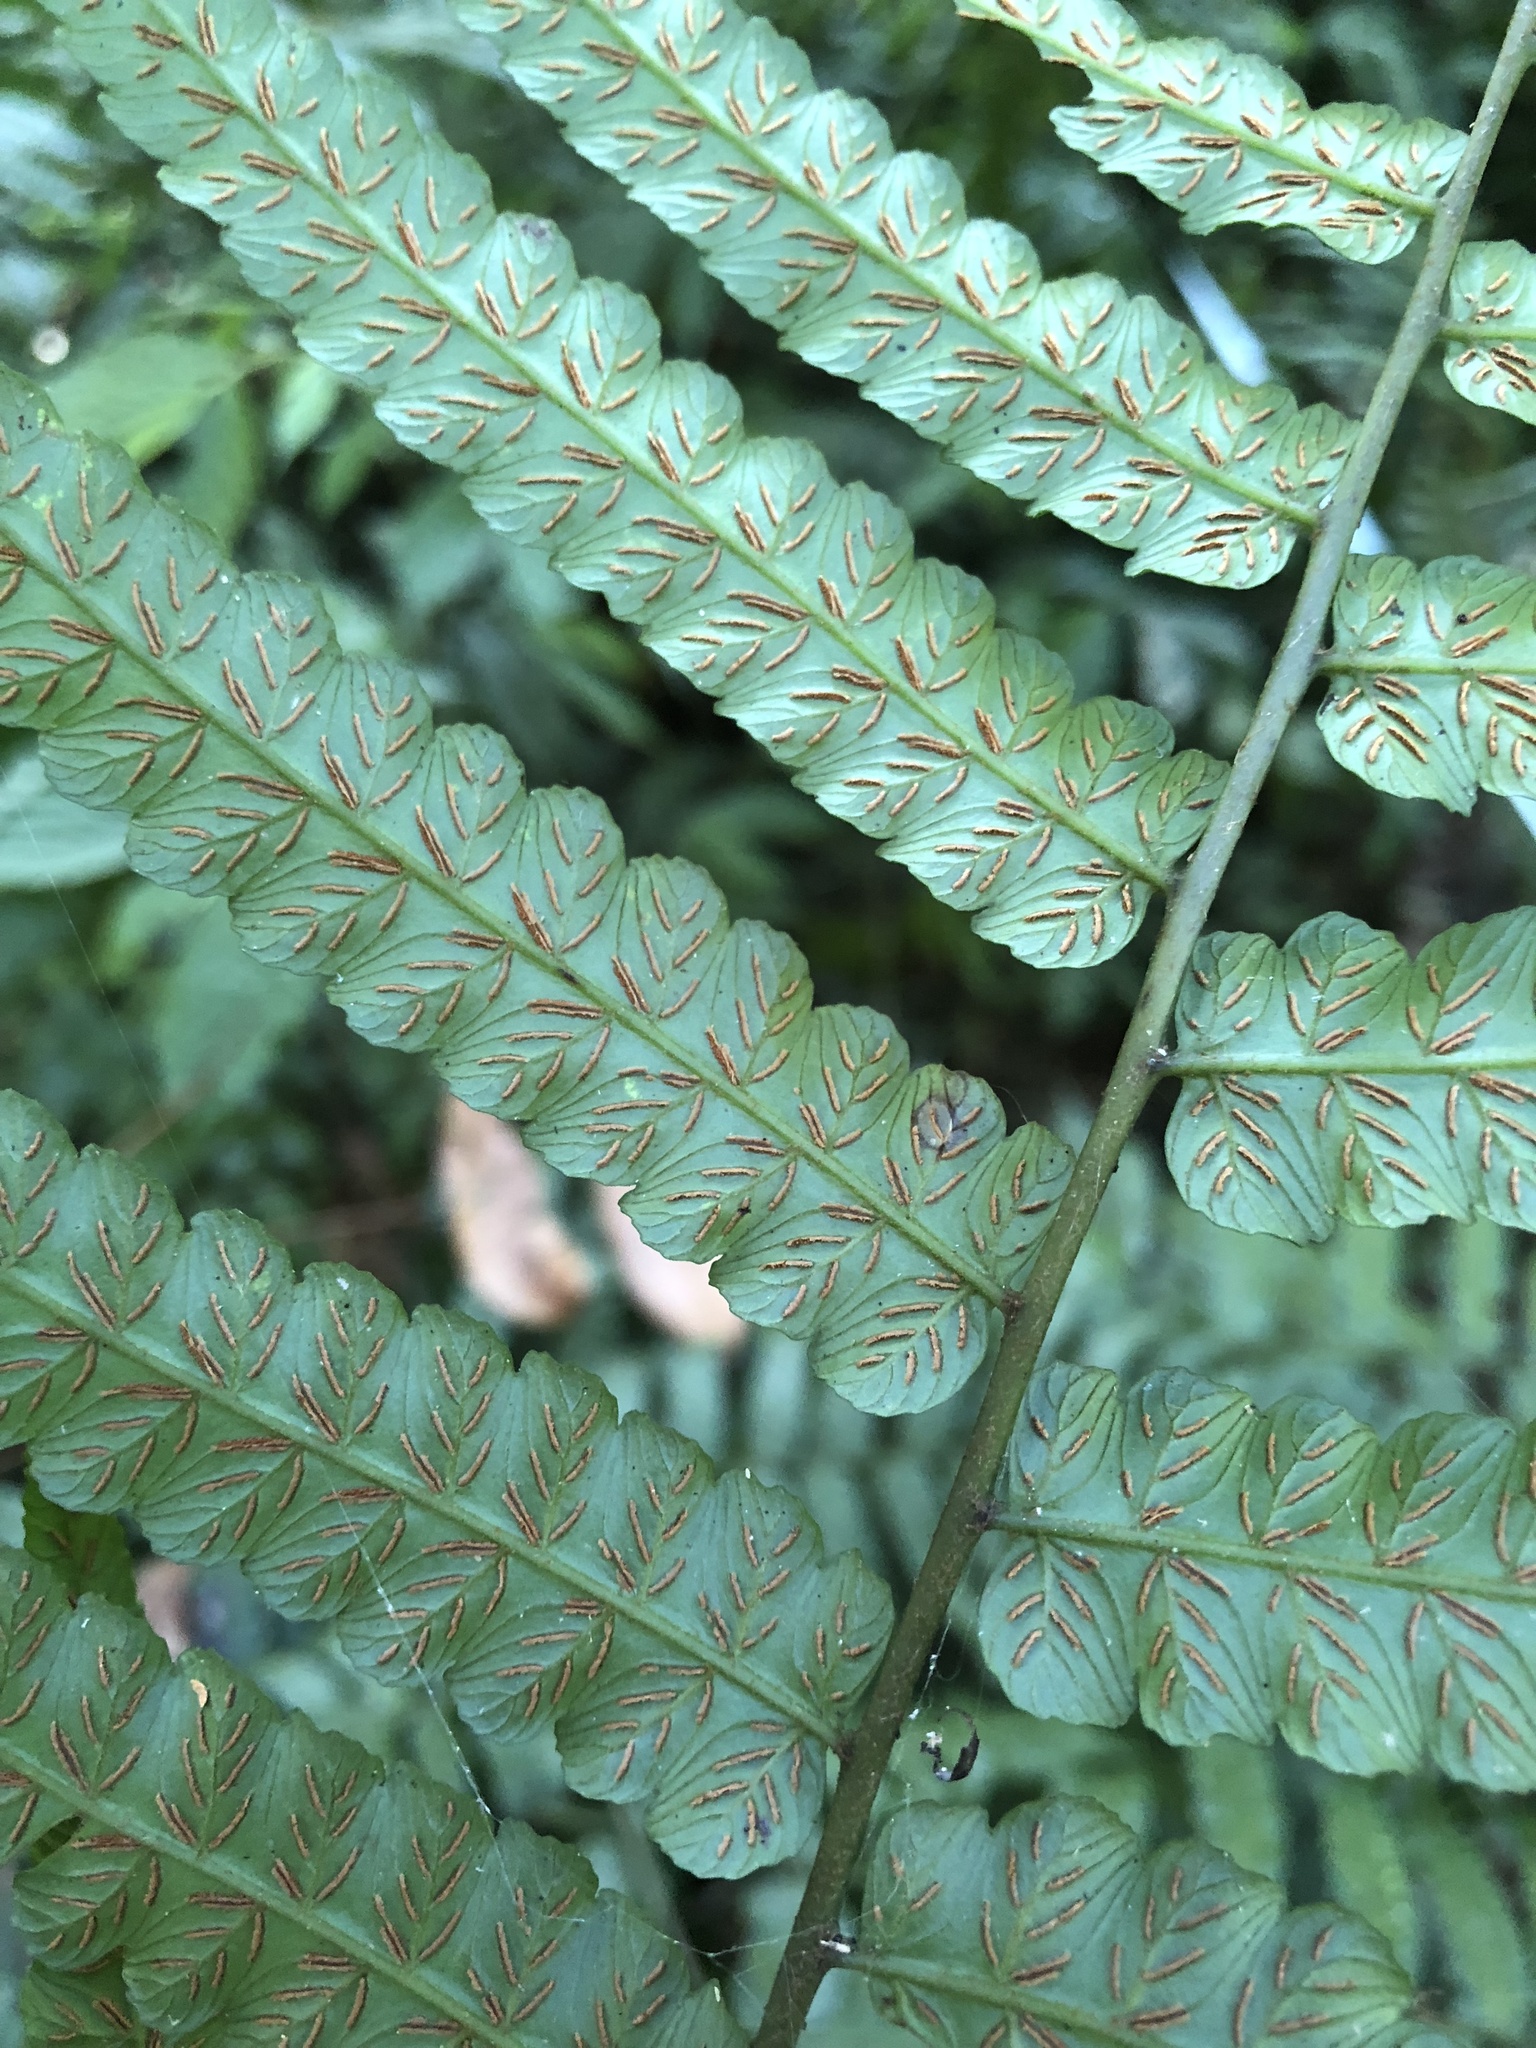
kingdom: Plantae
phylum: Tracheophyta
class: Polypodiopsida
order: Polypodiales
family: Athyriaceae
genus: Diplazium
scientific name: Diplazium dilatatum
